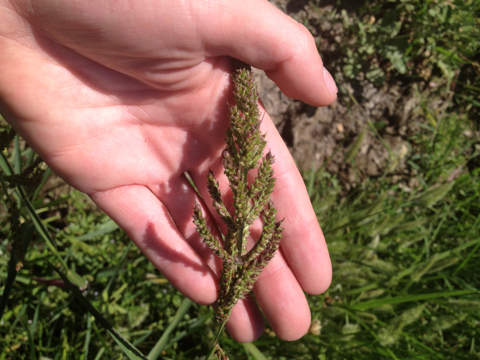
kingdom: Plantae
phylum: Tracheophyta
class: Liliopsida
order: Poales
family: Poaceae
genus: Echinochloa
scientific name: Echinochloa
